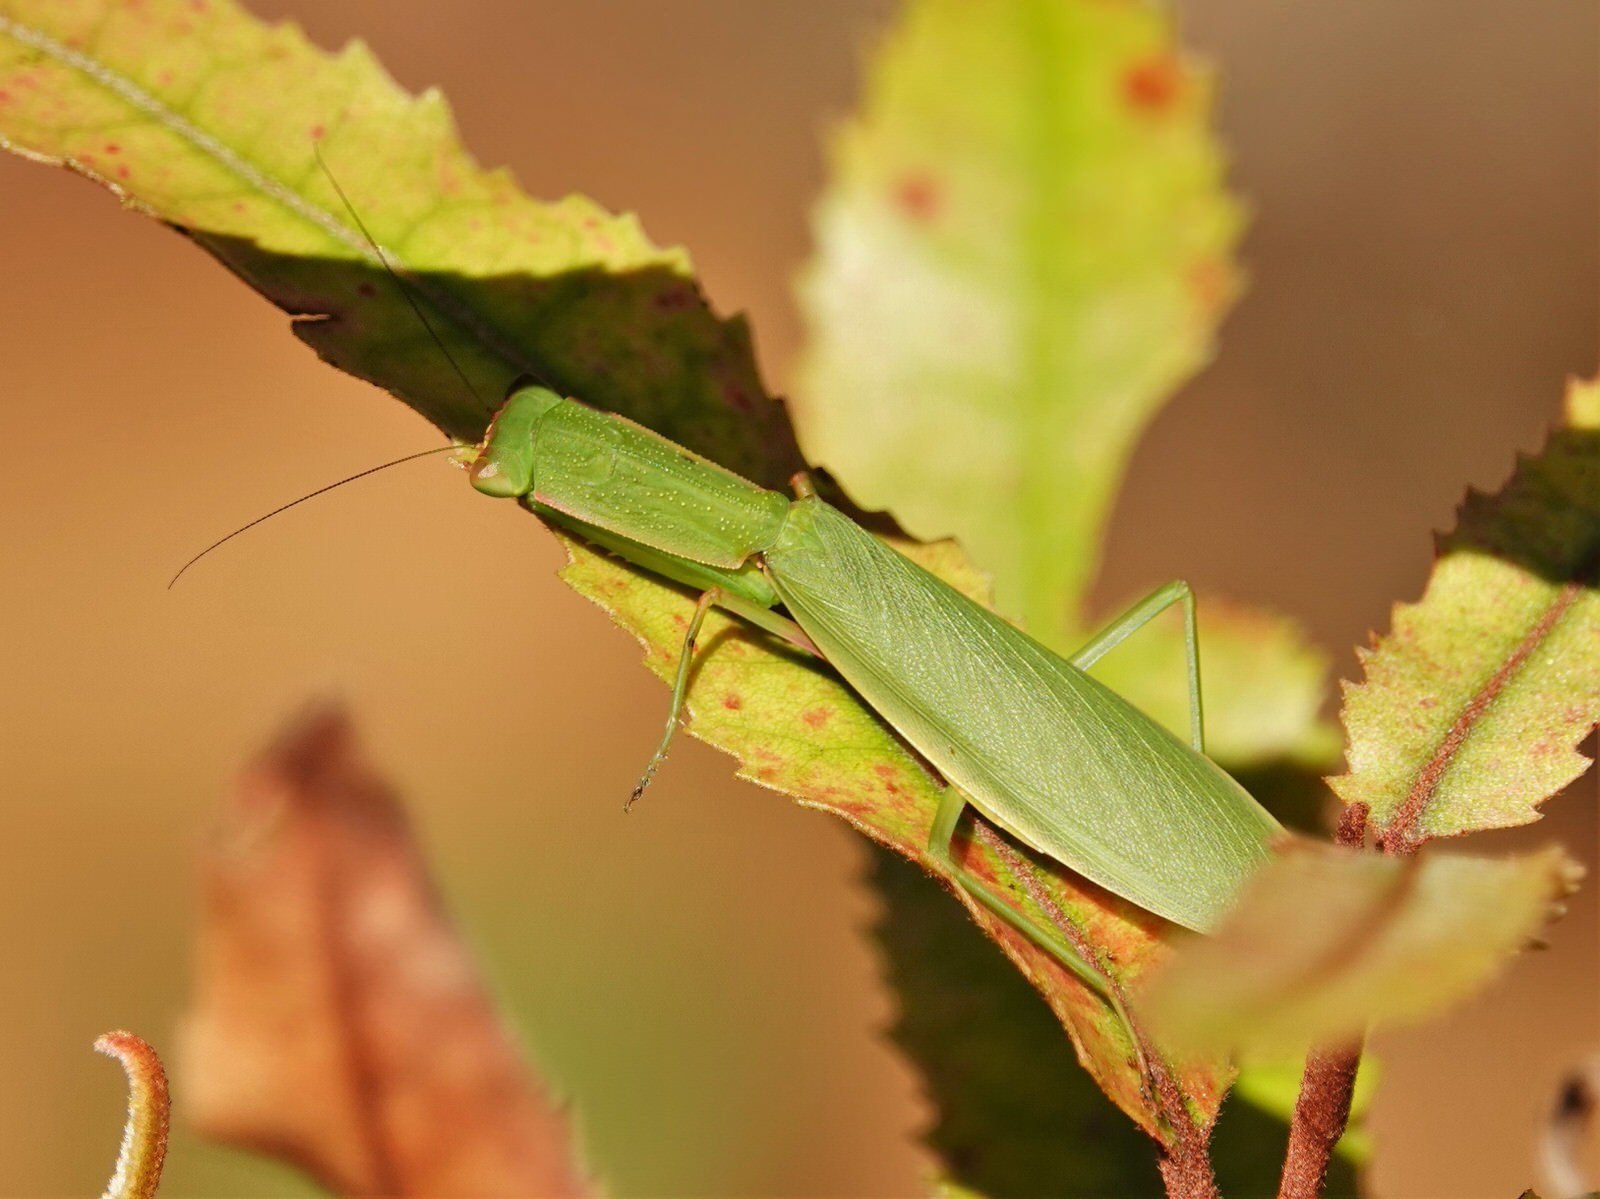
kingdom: Animalia
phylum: Arthropoda
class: Insecta
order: Mantodea
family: Mantidae
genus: Orthodera
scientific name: Orthodera novaezealandiae
